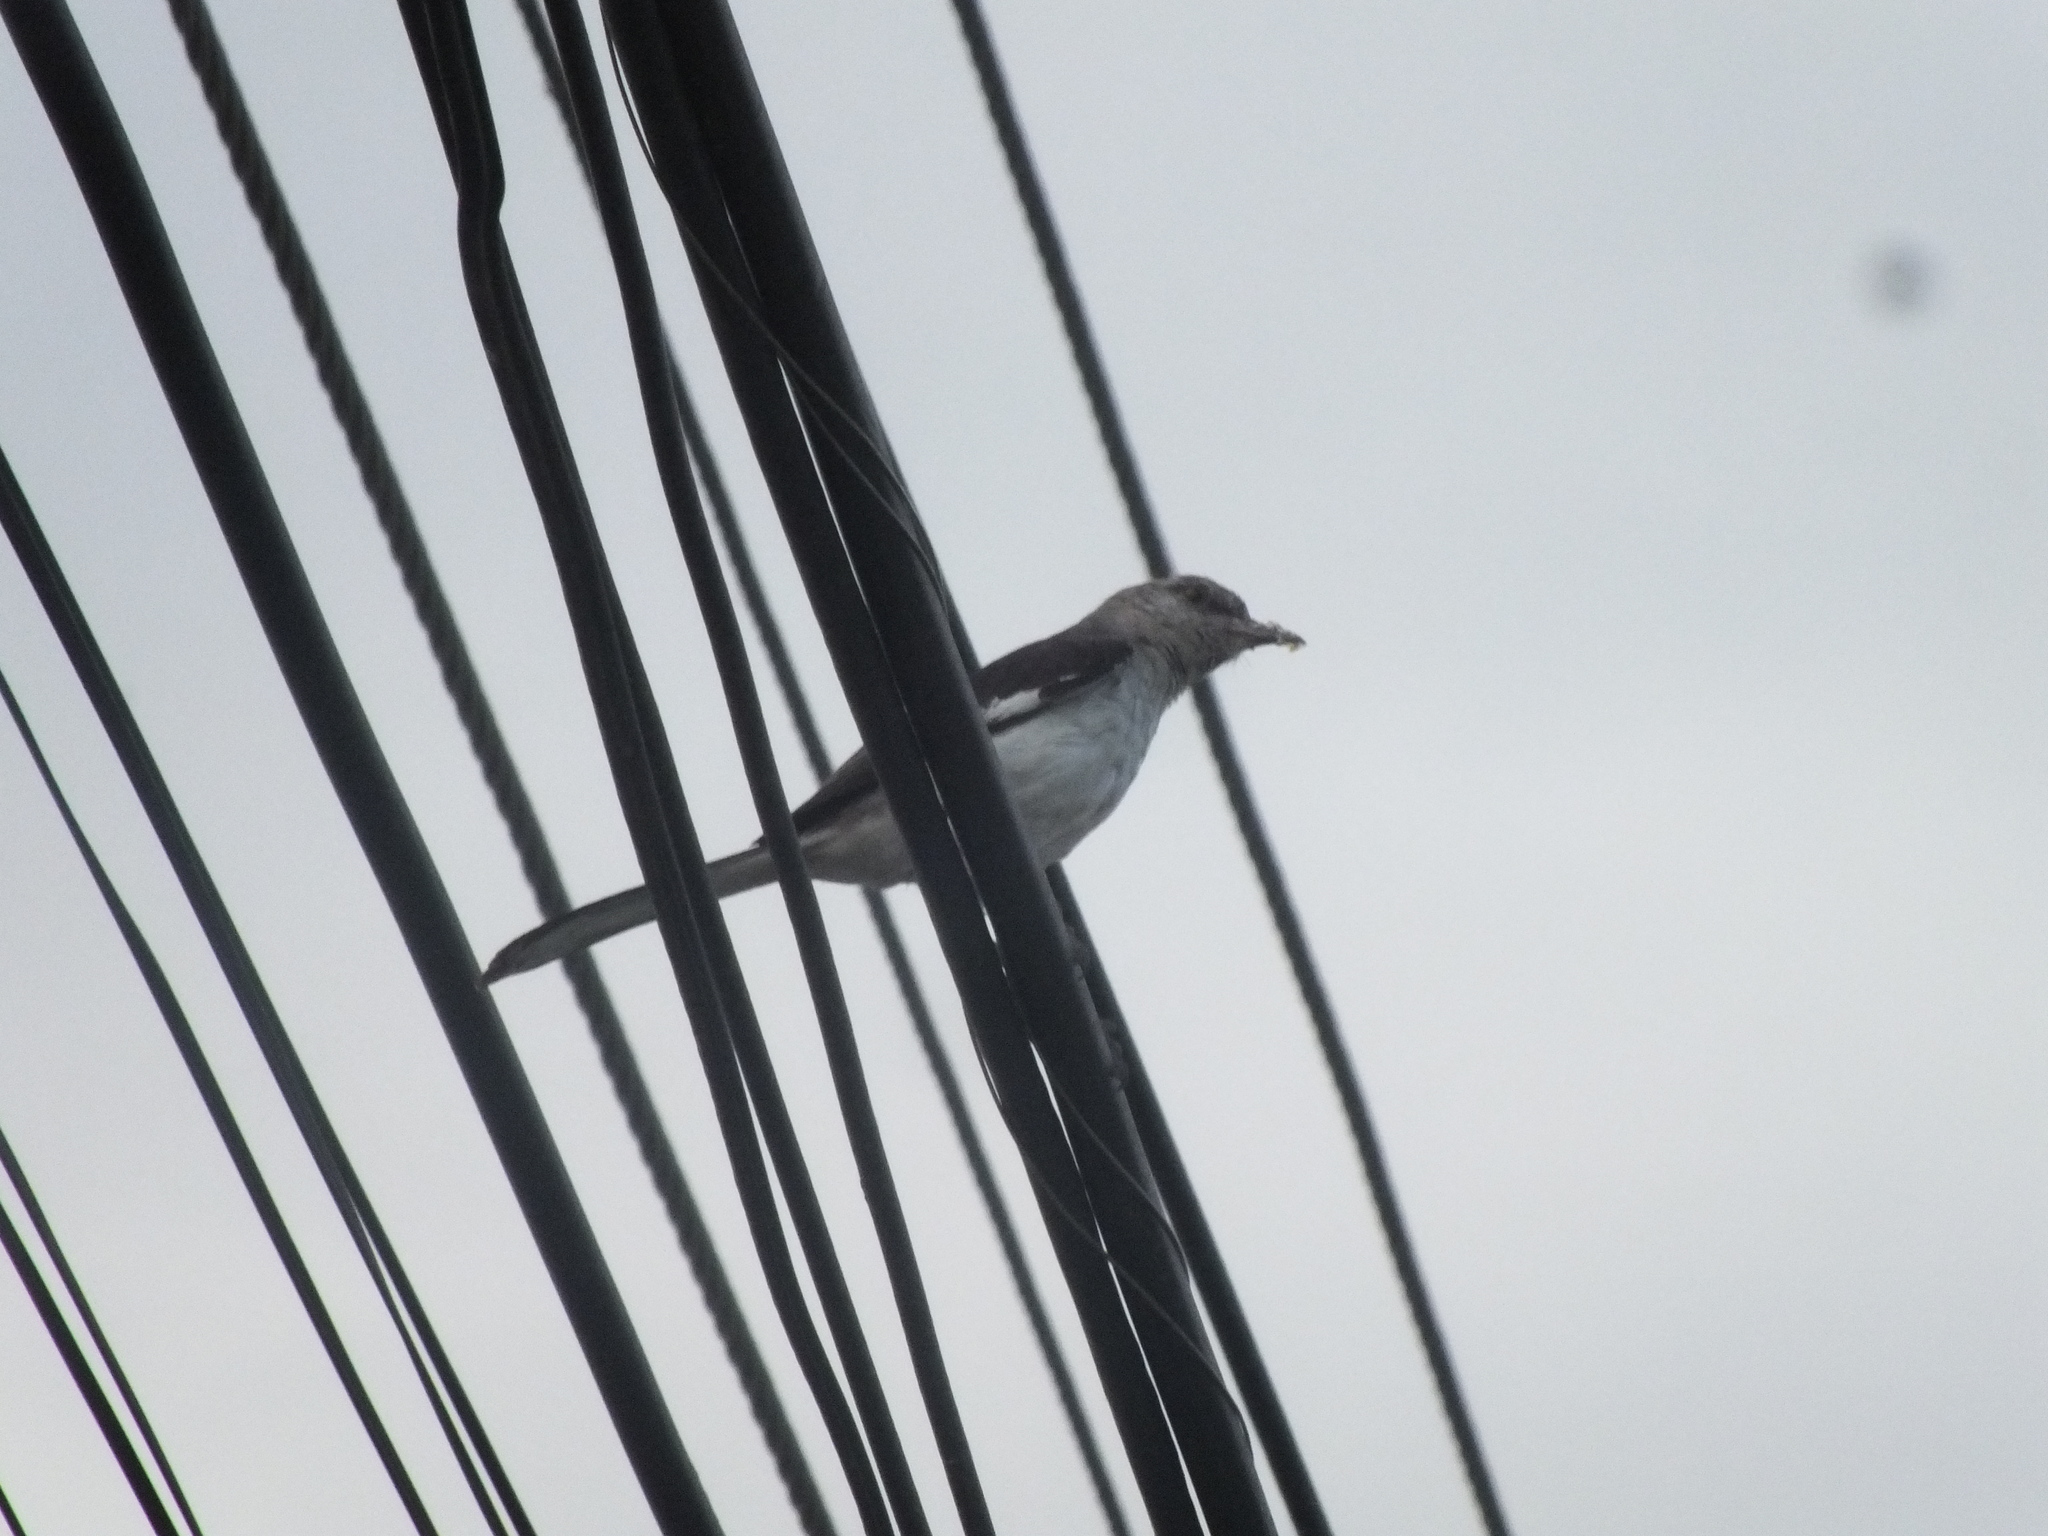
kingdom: Animalia
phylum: Chordata
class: Aves
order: Passeriformes
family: Mimidae
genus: Mimus
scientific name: Mimus polyglottos
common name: Northern mockingbird
